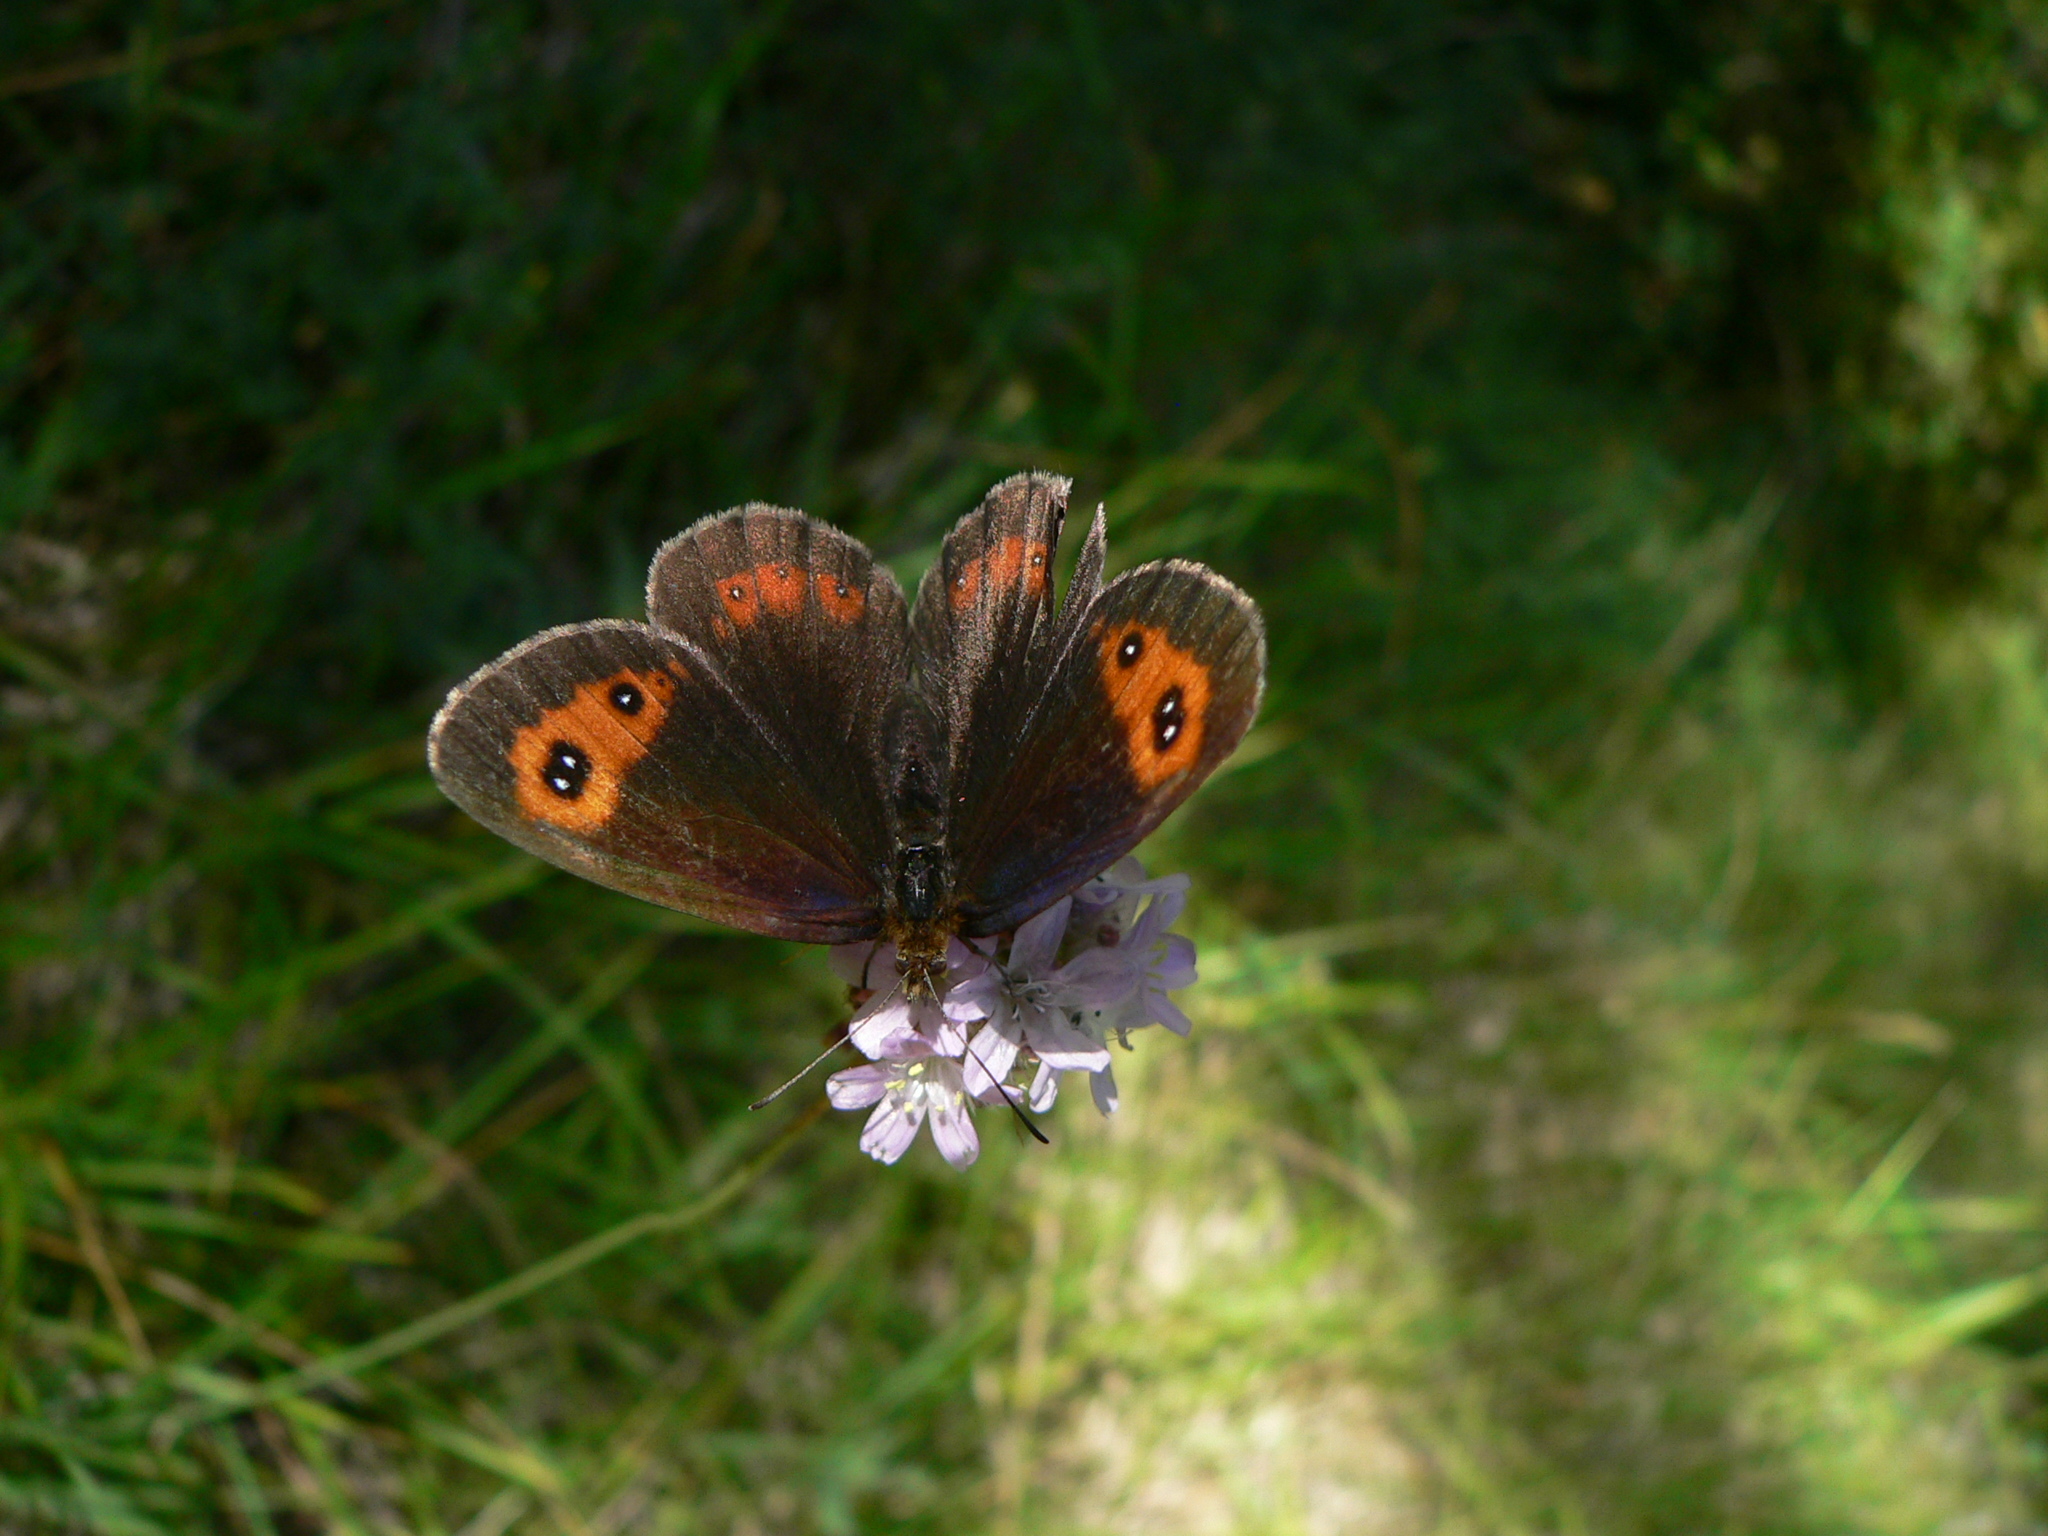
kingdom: Animalia
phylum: Arthropoda
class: Insecta
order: Lepidoptera
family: Nymphalidae
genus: Erebia
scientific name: Erebia aethiops
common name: Scotch argus
